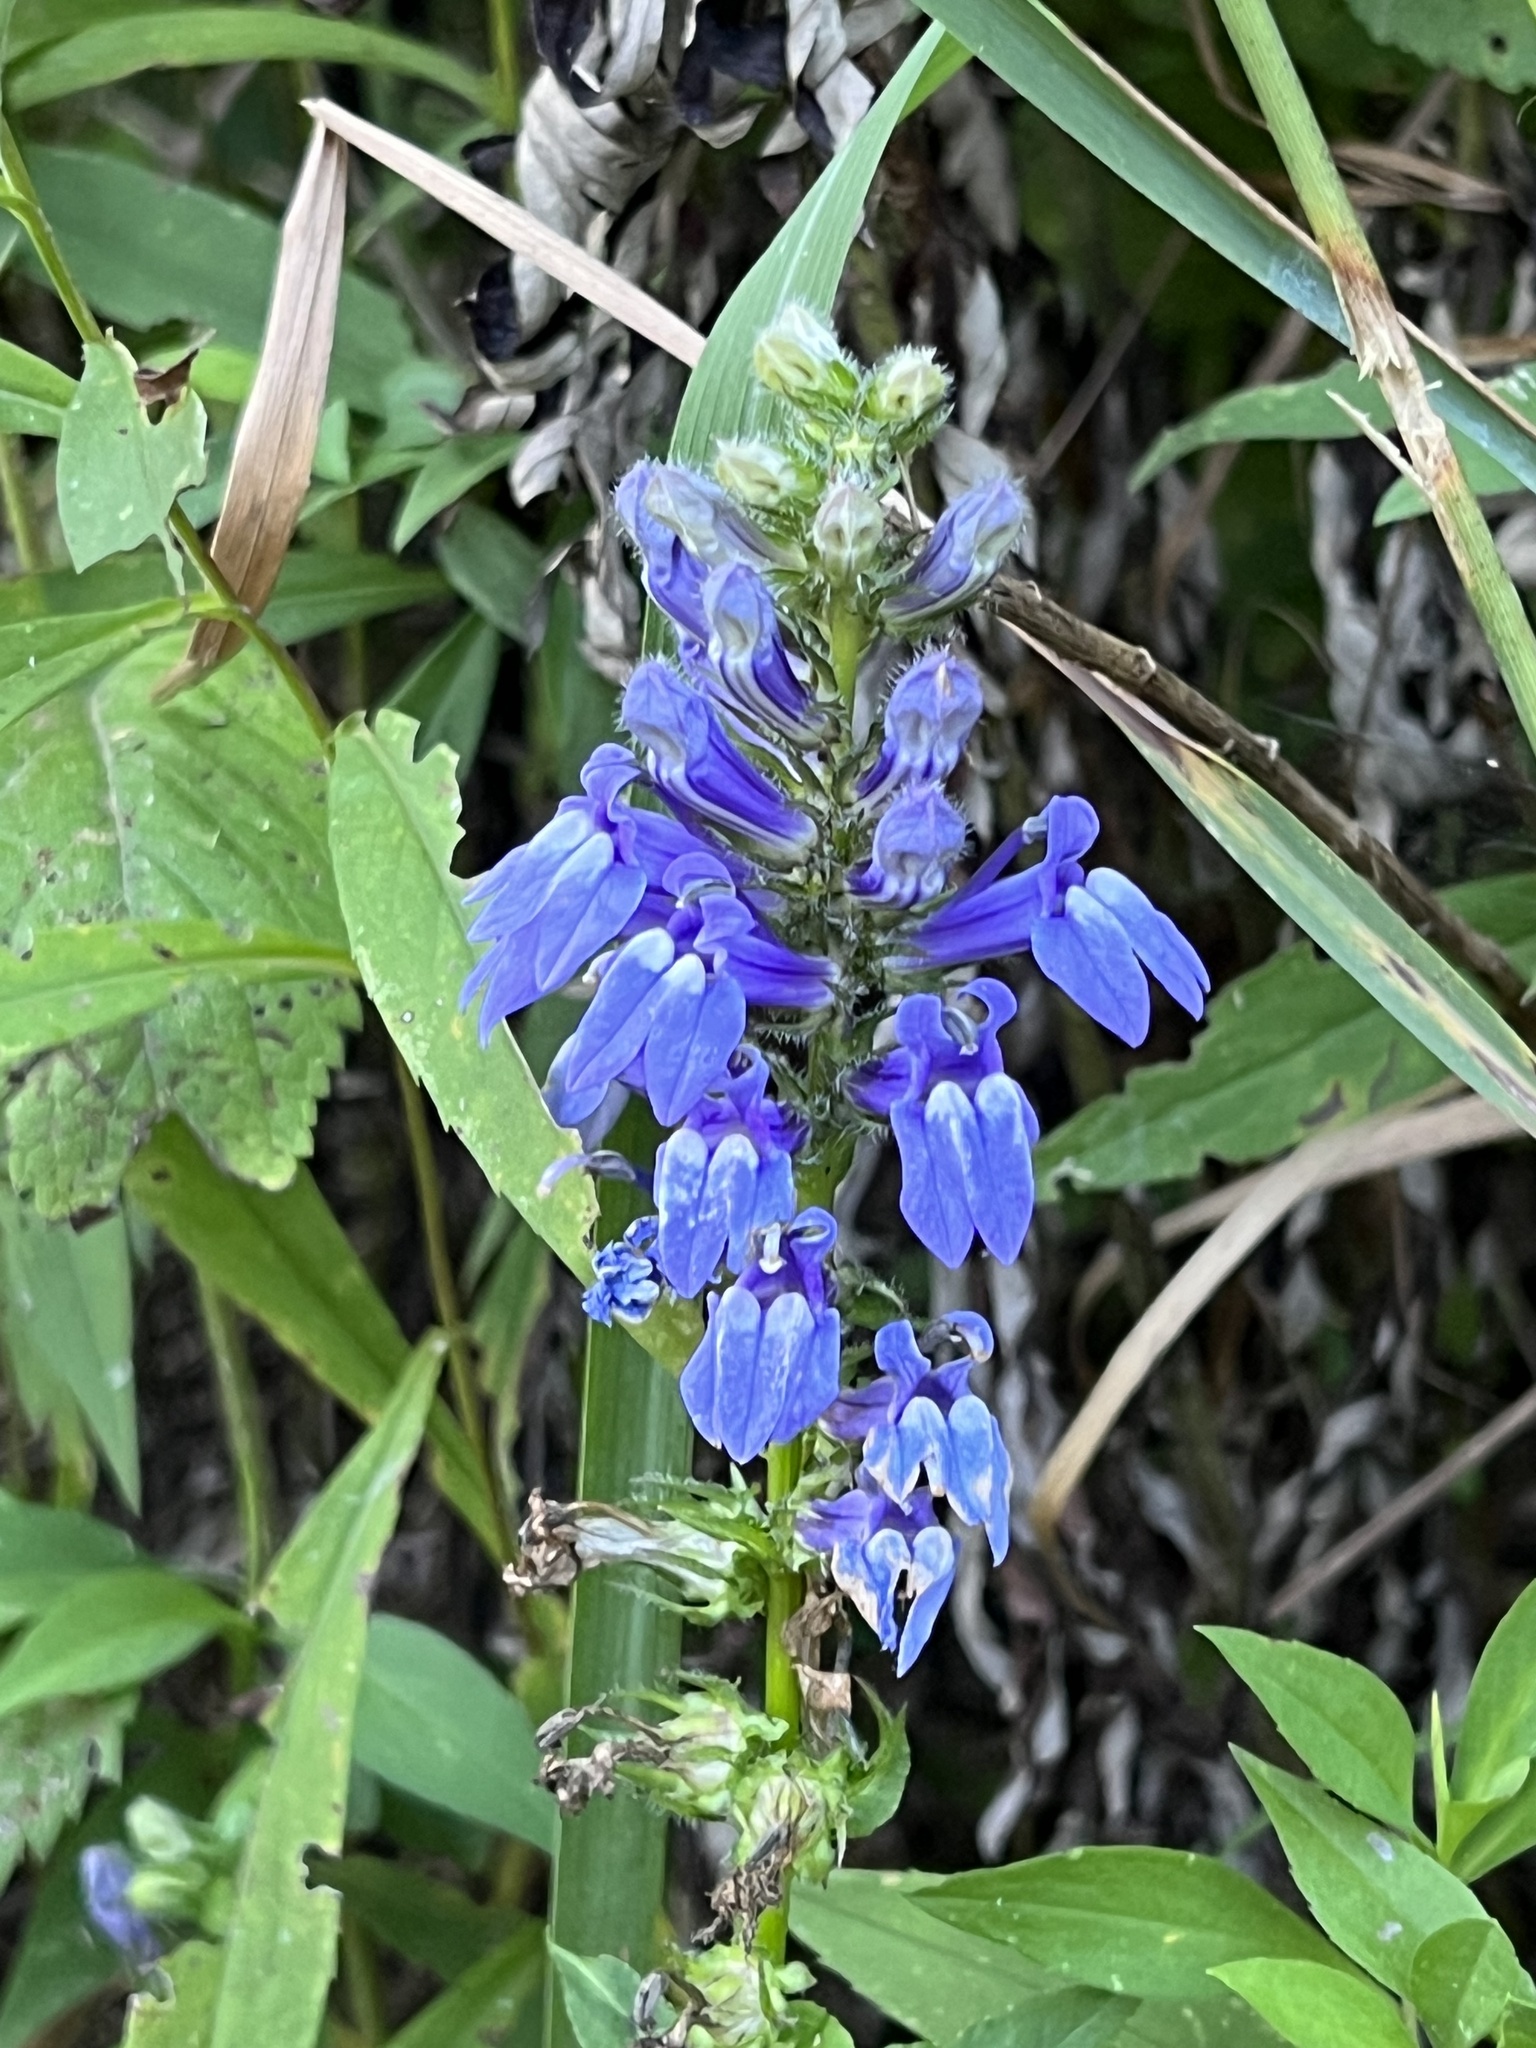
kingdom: Plantae
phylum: Tracheophyta
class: Magnoliopsida
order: Asterales
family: Campanulaceae
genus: Lobelia
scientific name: Lobelia siphilitica
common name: Great lobelia
